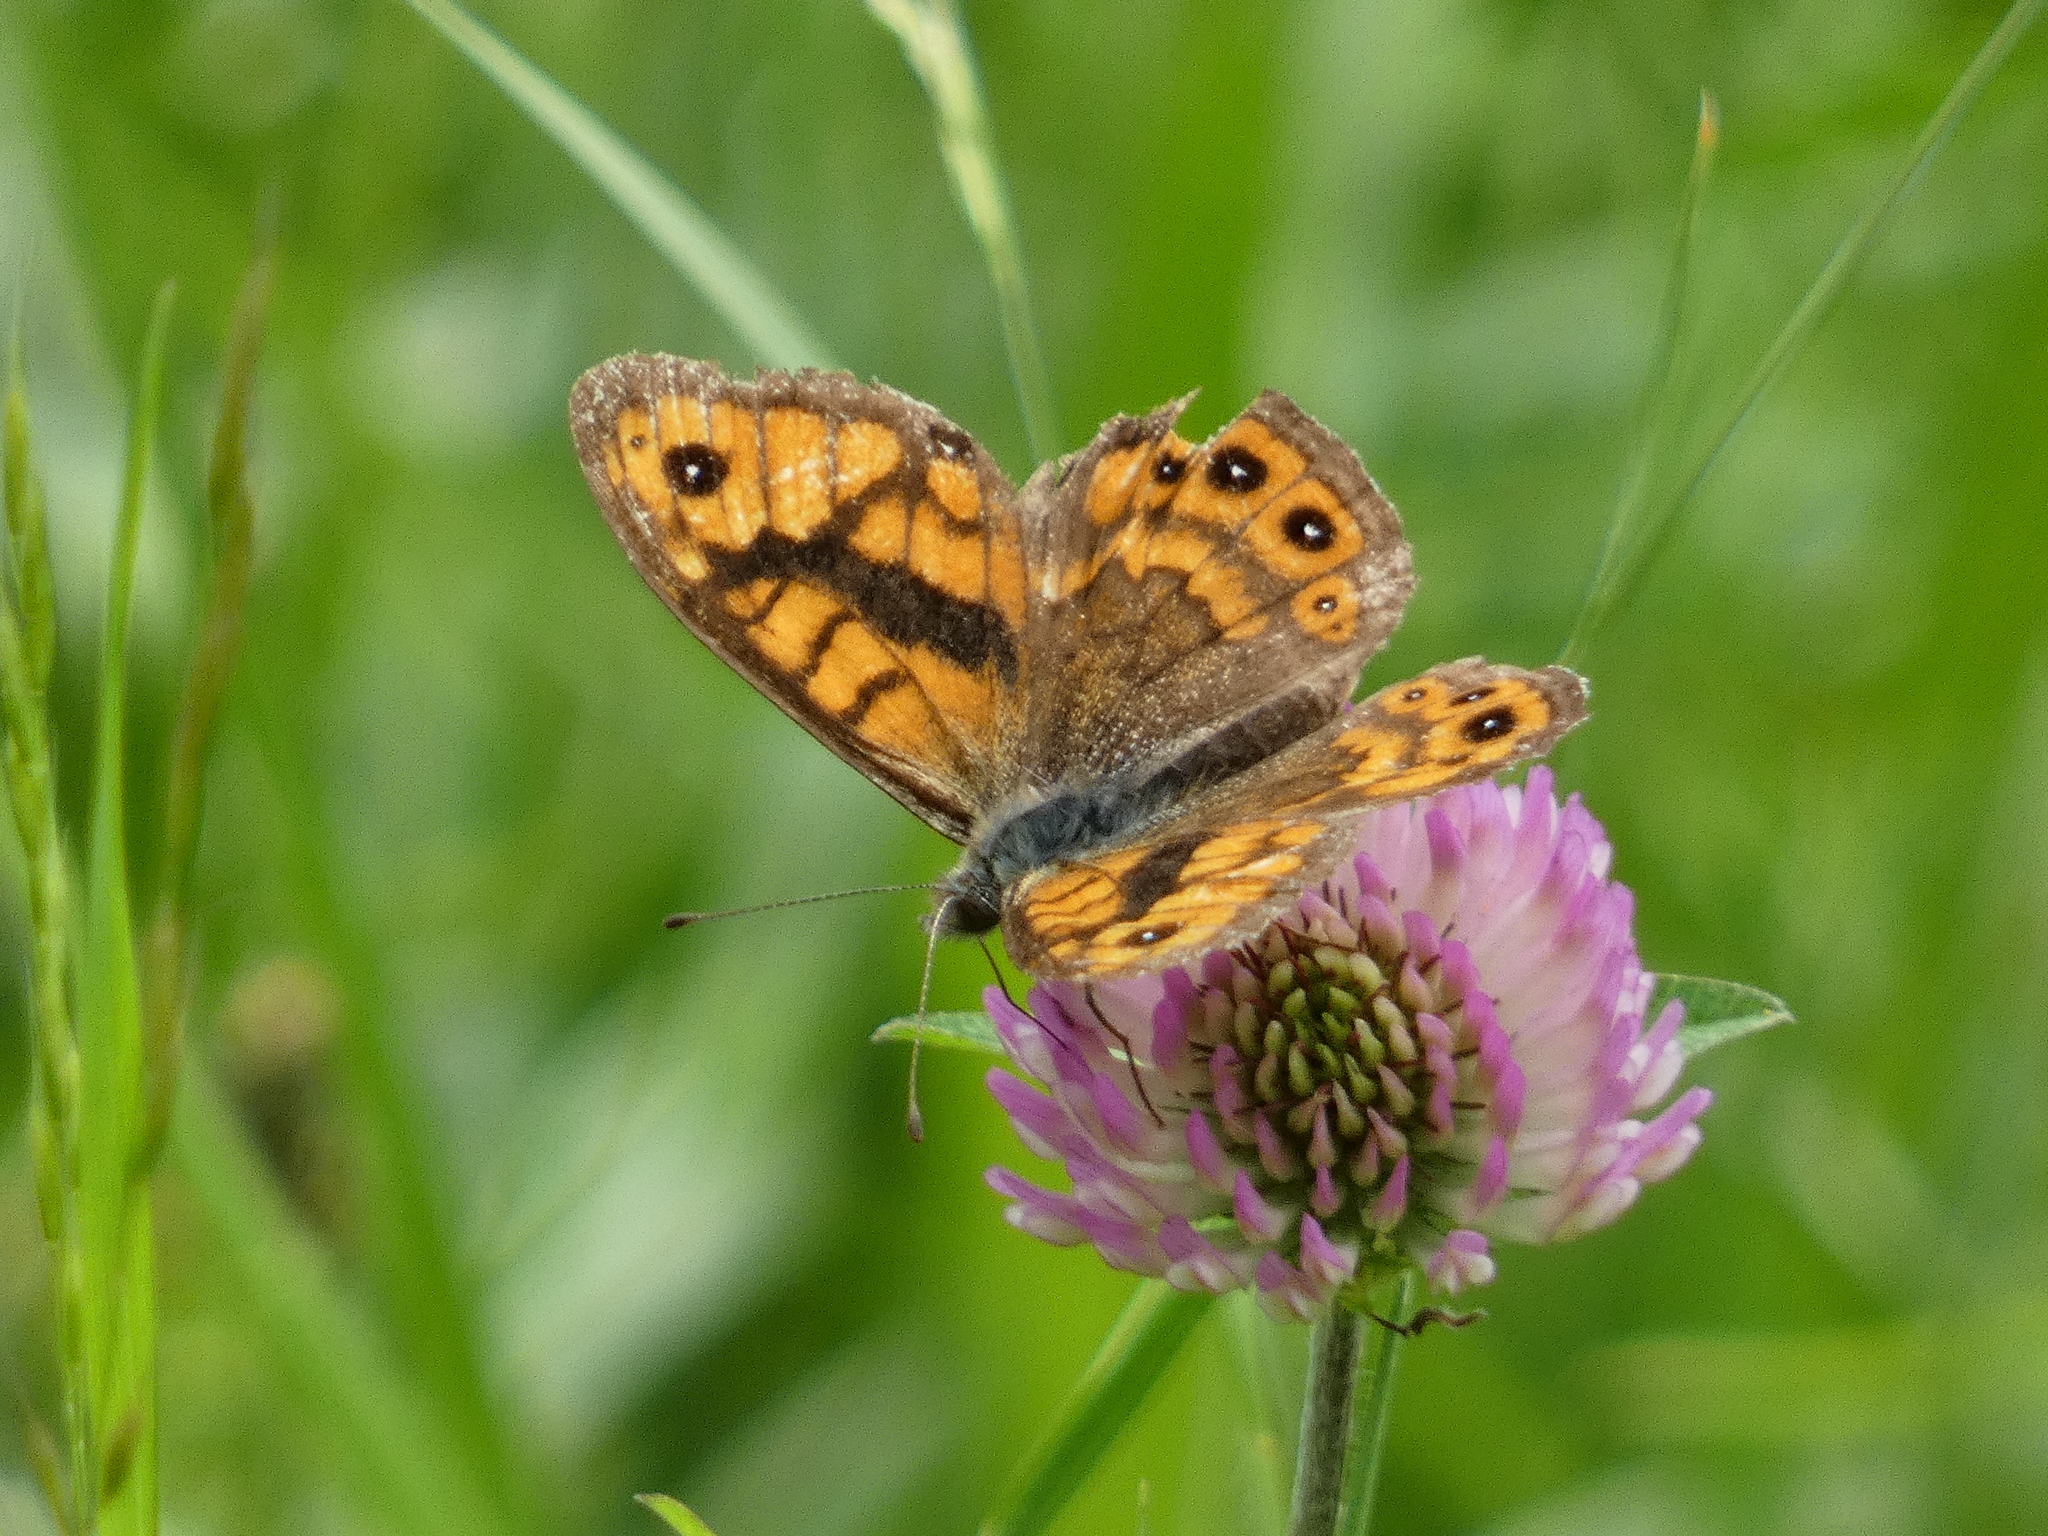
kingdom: Animalia
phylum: Arthropoda
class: Insecta
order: Lepidoptera
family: Nymphalidae
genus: Pararge
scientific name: Pararge Lasiommata megera
